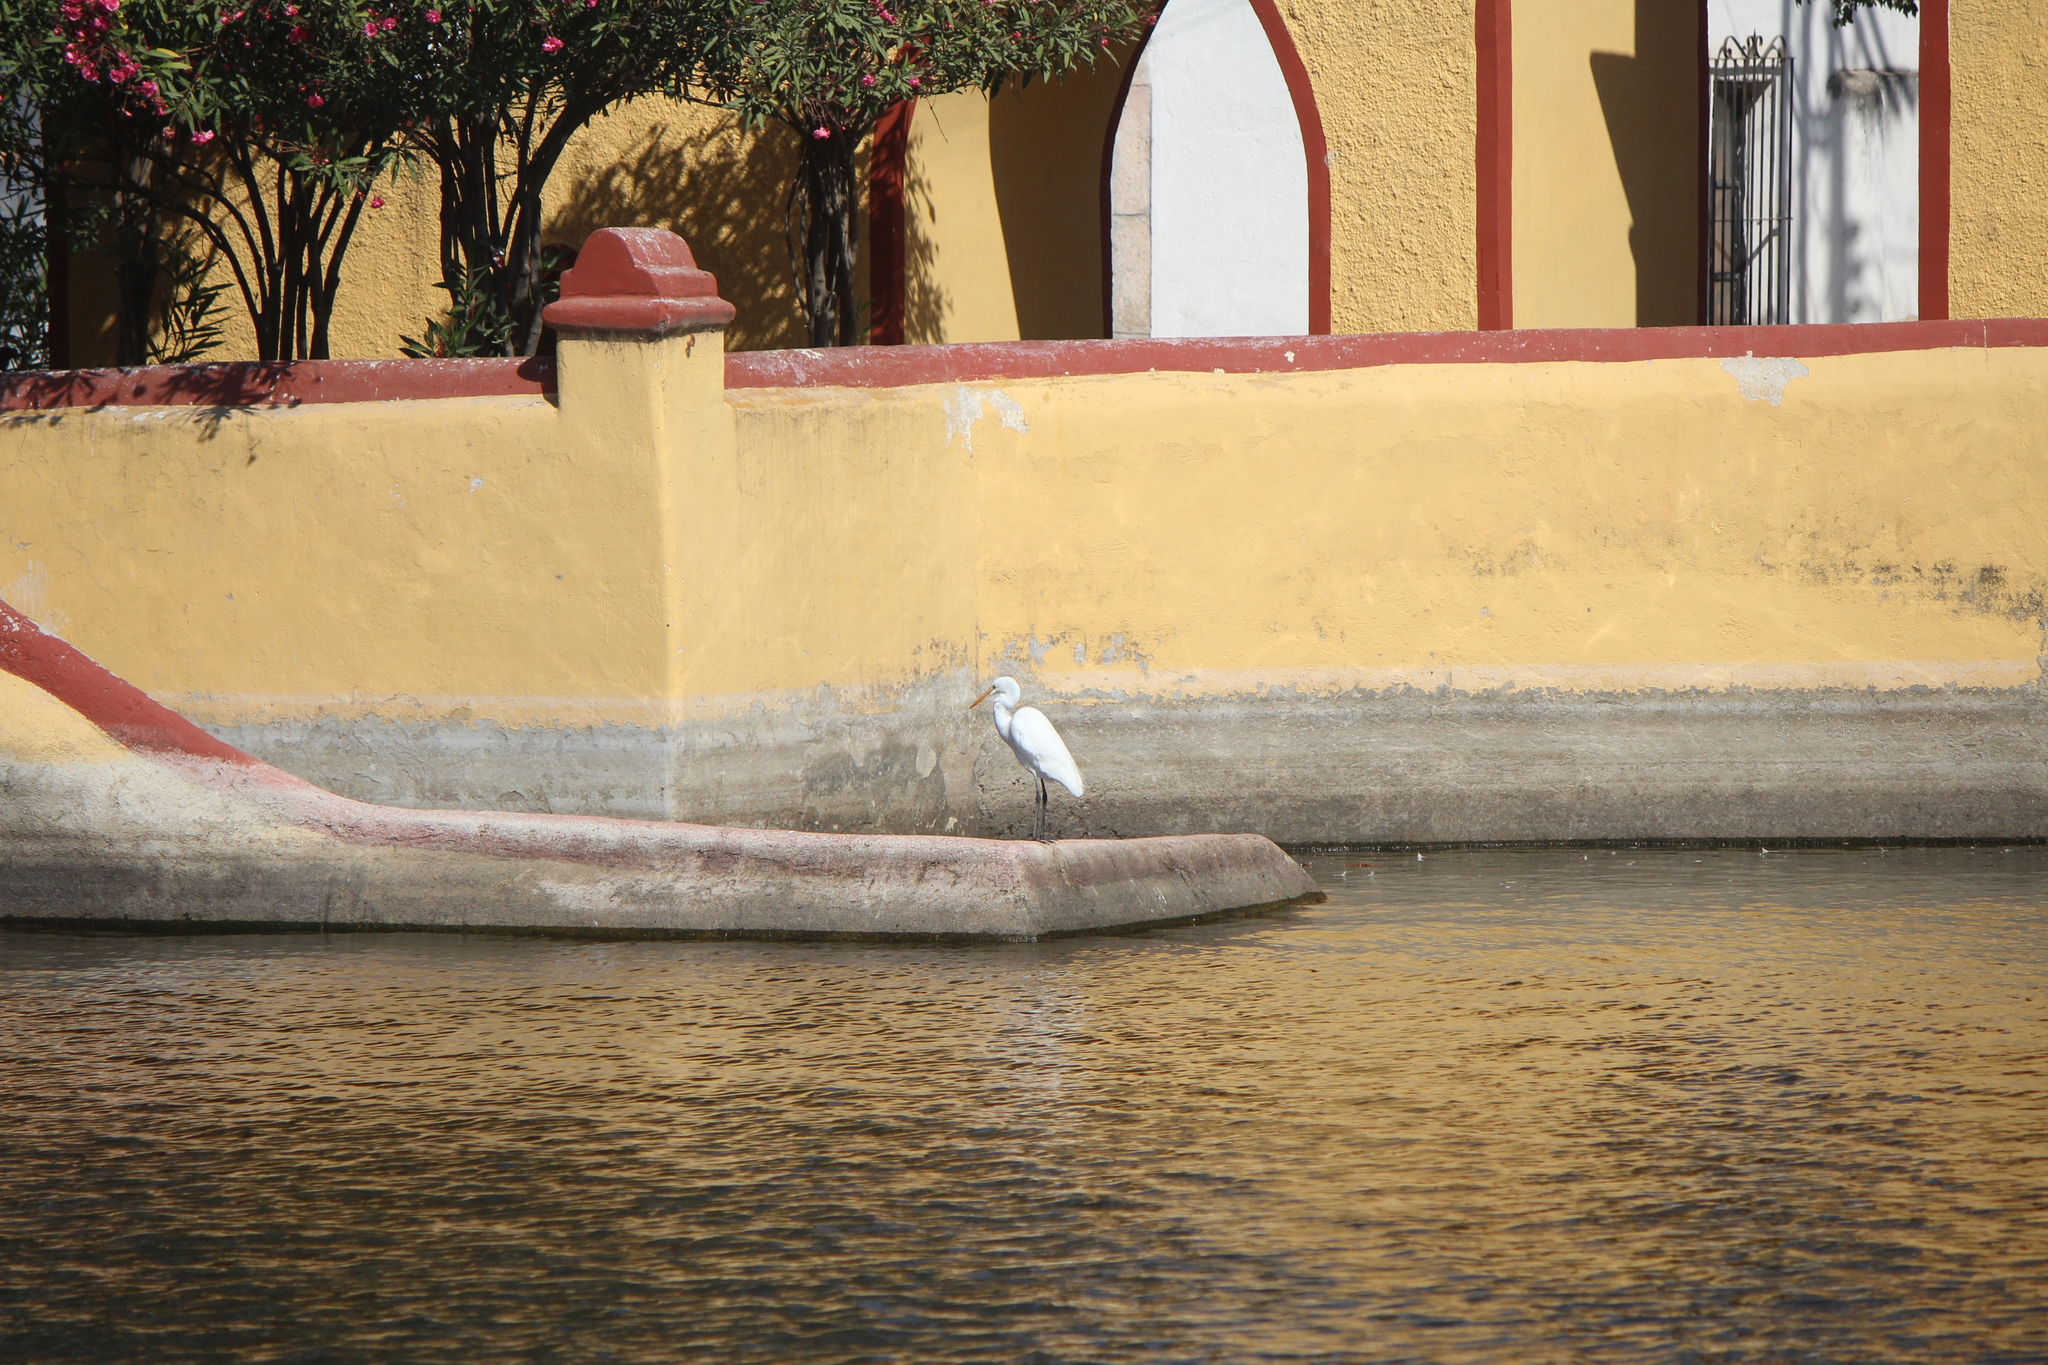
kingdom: Animalia
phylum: Chordata
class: Aves
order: Pelecaniformes
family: Ardeidae
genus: Ardea
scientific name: Ardea alba
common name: Great egret
